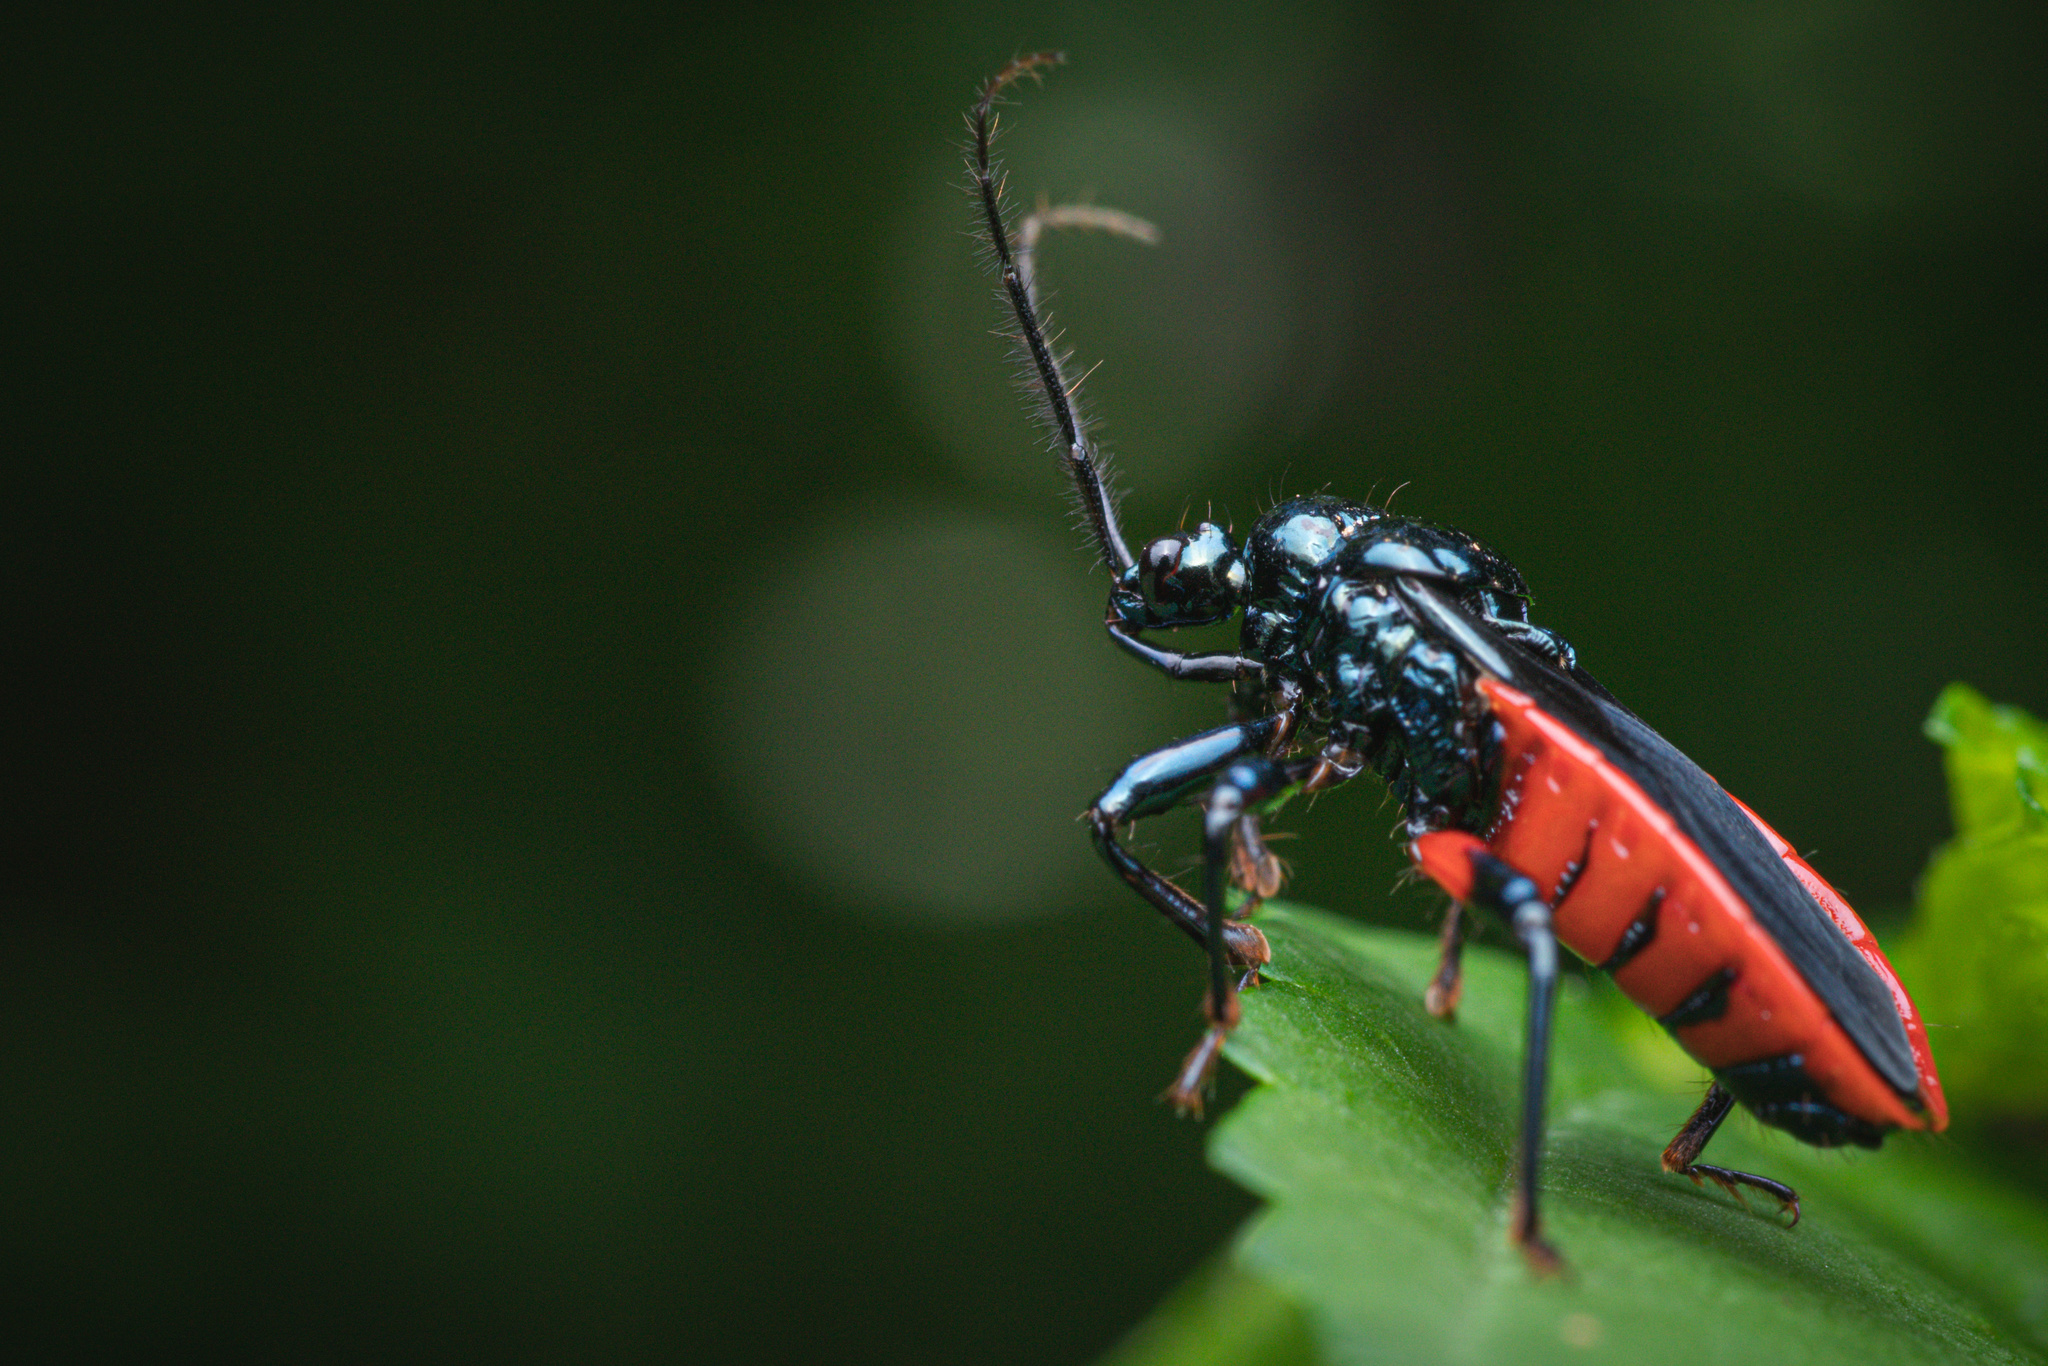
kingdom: Animalia
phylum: Arthropoda
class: Insecta
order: Hemiptera
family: Reduviidae
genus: Ectrychotes
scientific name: Ectrychotes callidus
